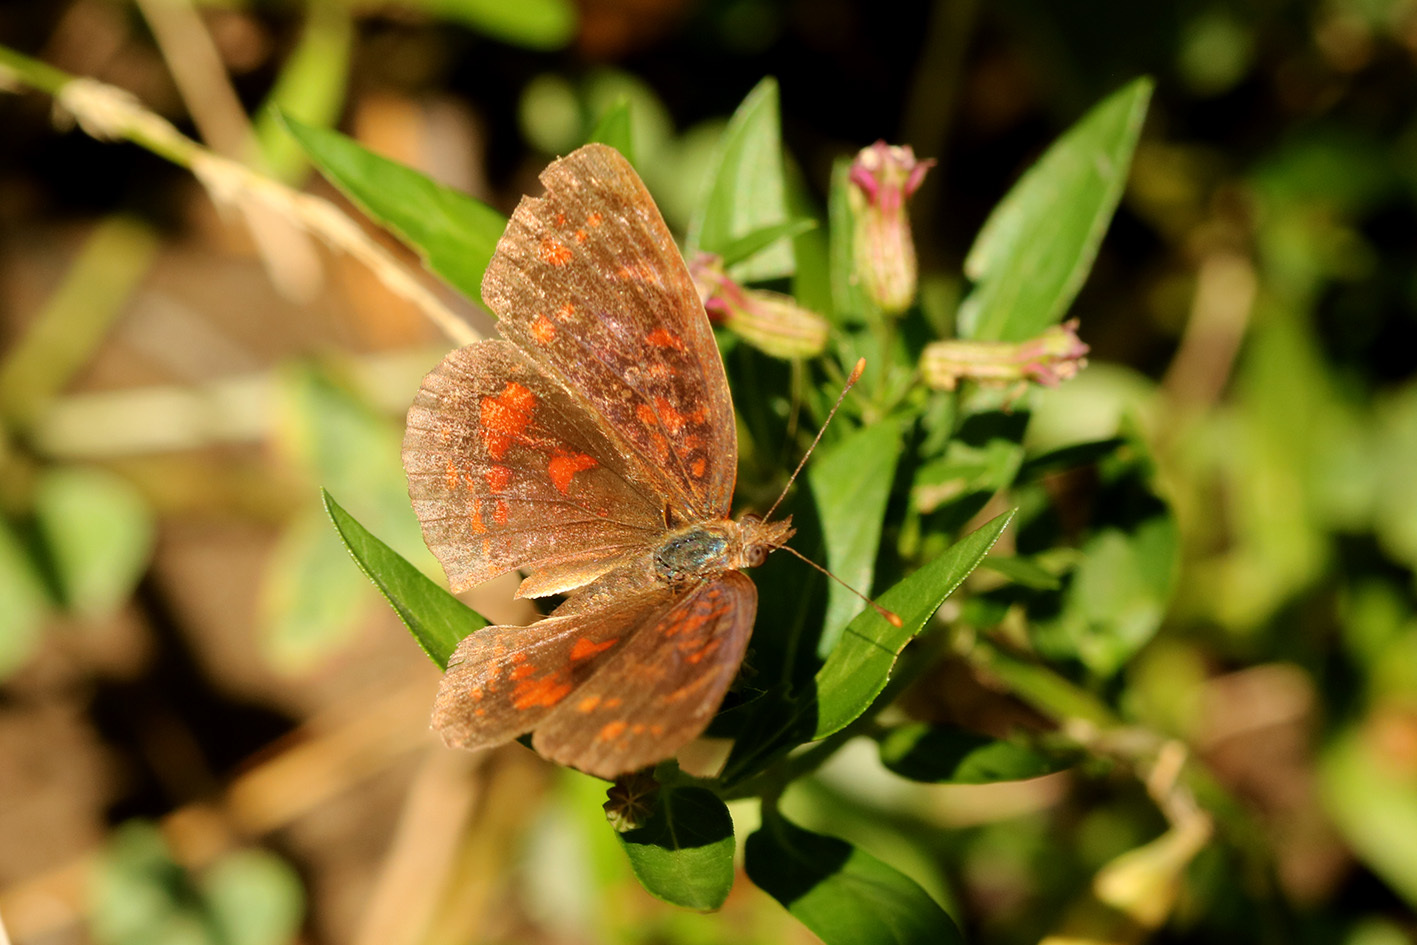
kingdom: Animalia
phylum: Arthropoda
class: Insecta
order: Lepidoptera
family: Nymphalidae
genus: Ortilia
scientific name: Ortilia velica
